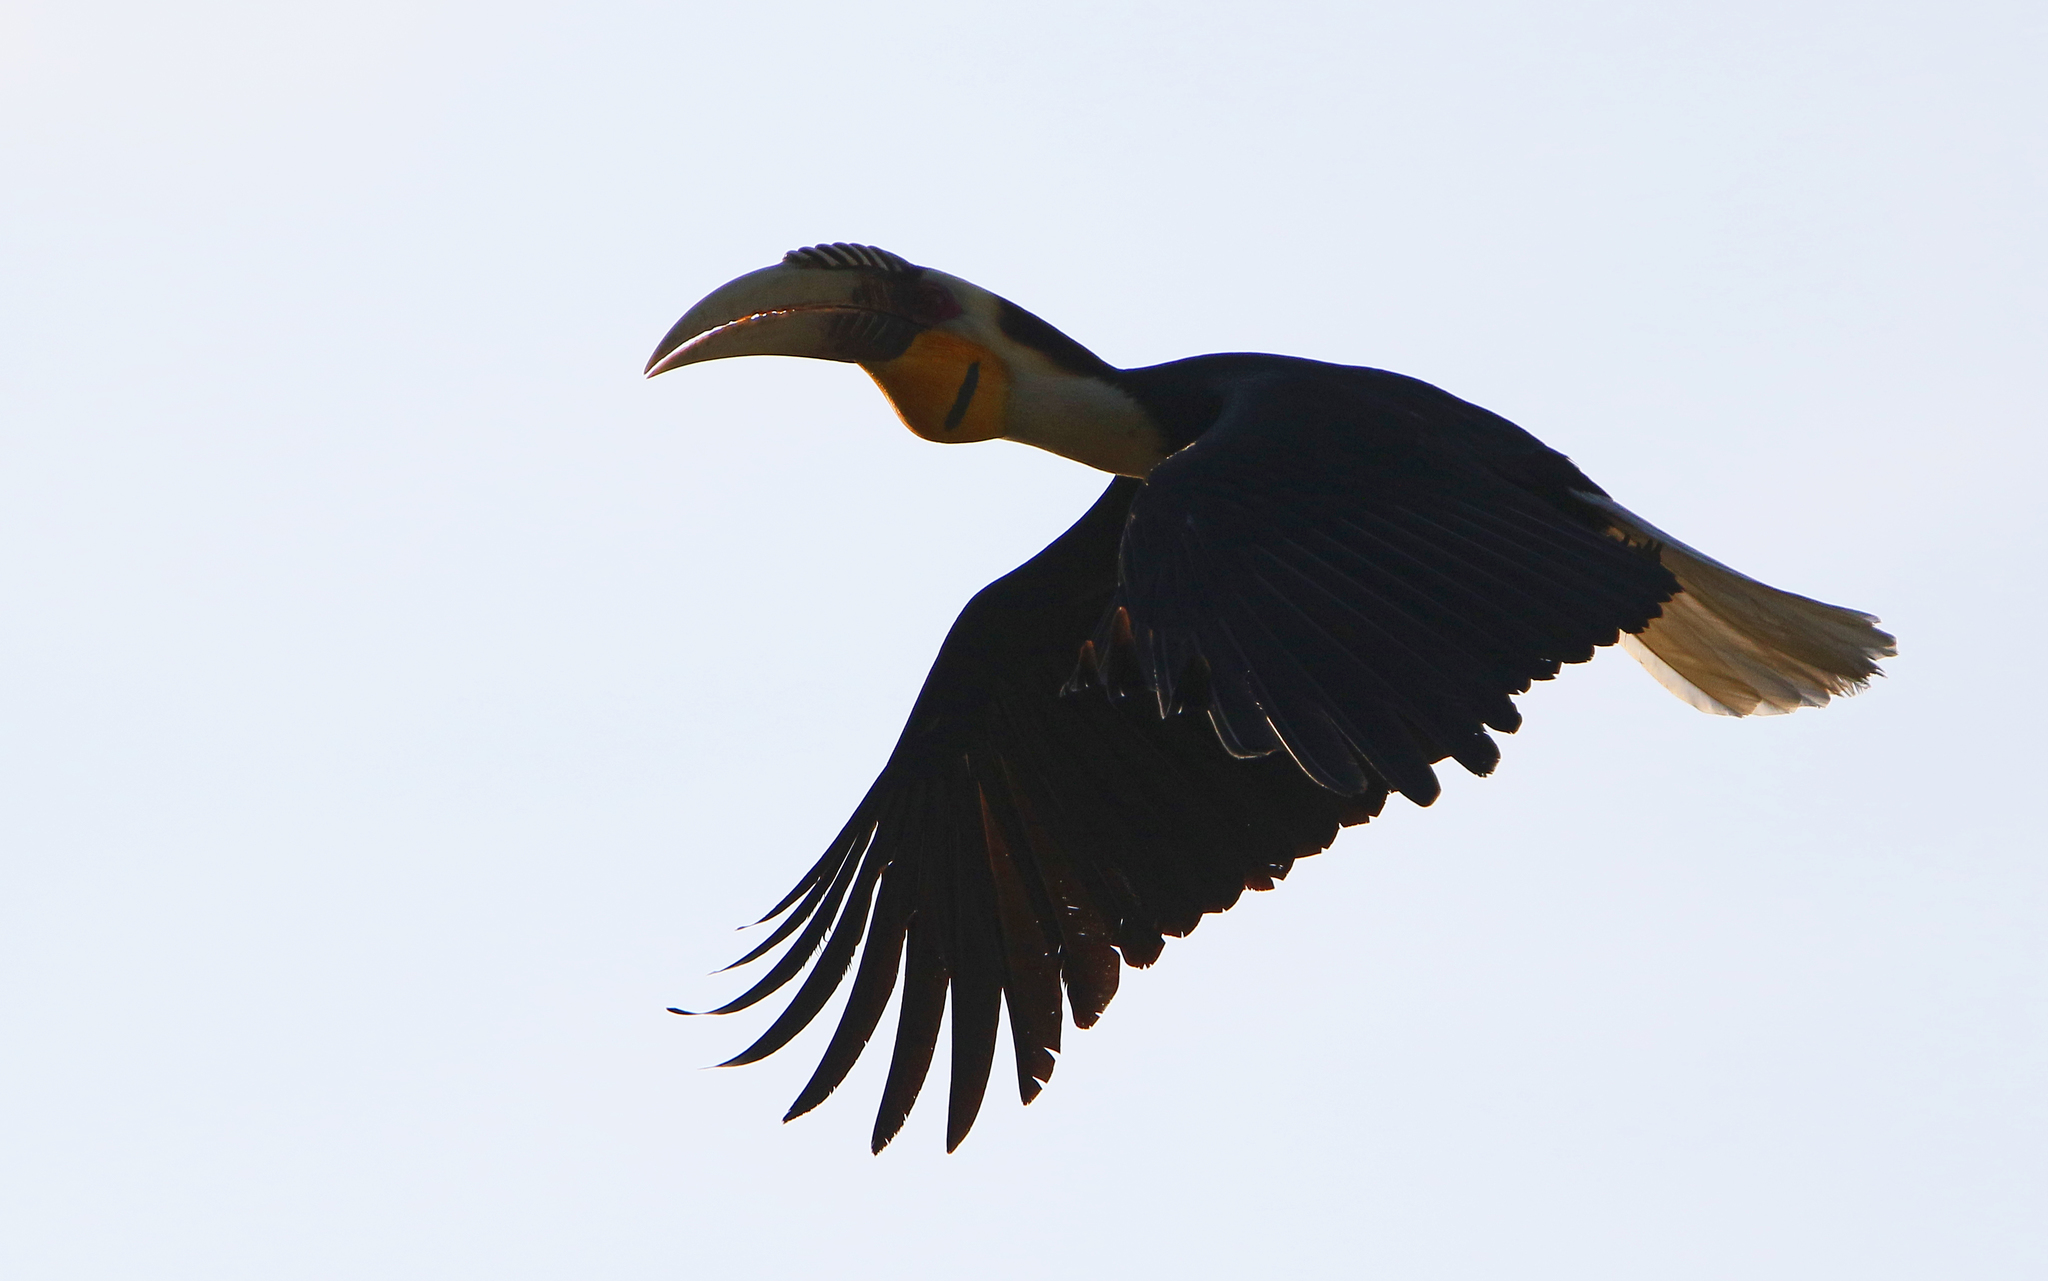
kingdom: Animalia
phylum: Chordata
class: Aves
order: Bucerotiformes
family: Bucerotidae
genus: Rhyticeros
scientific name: Rhyticeros undulatus
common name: Wreathed hornbill
